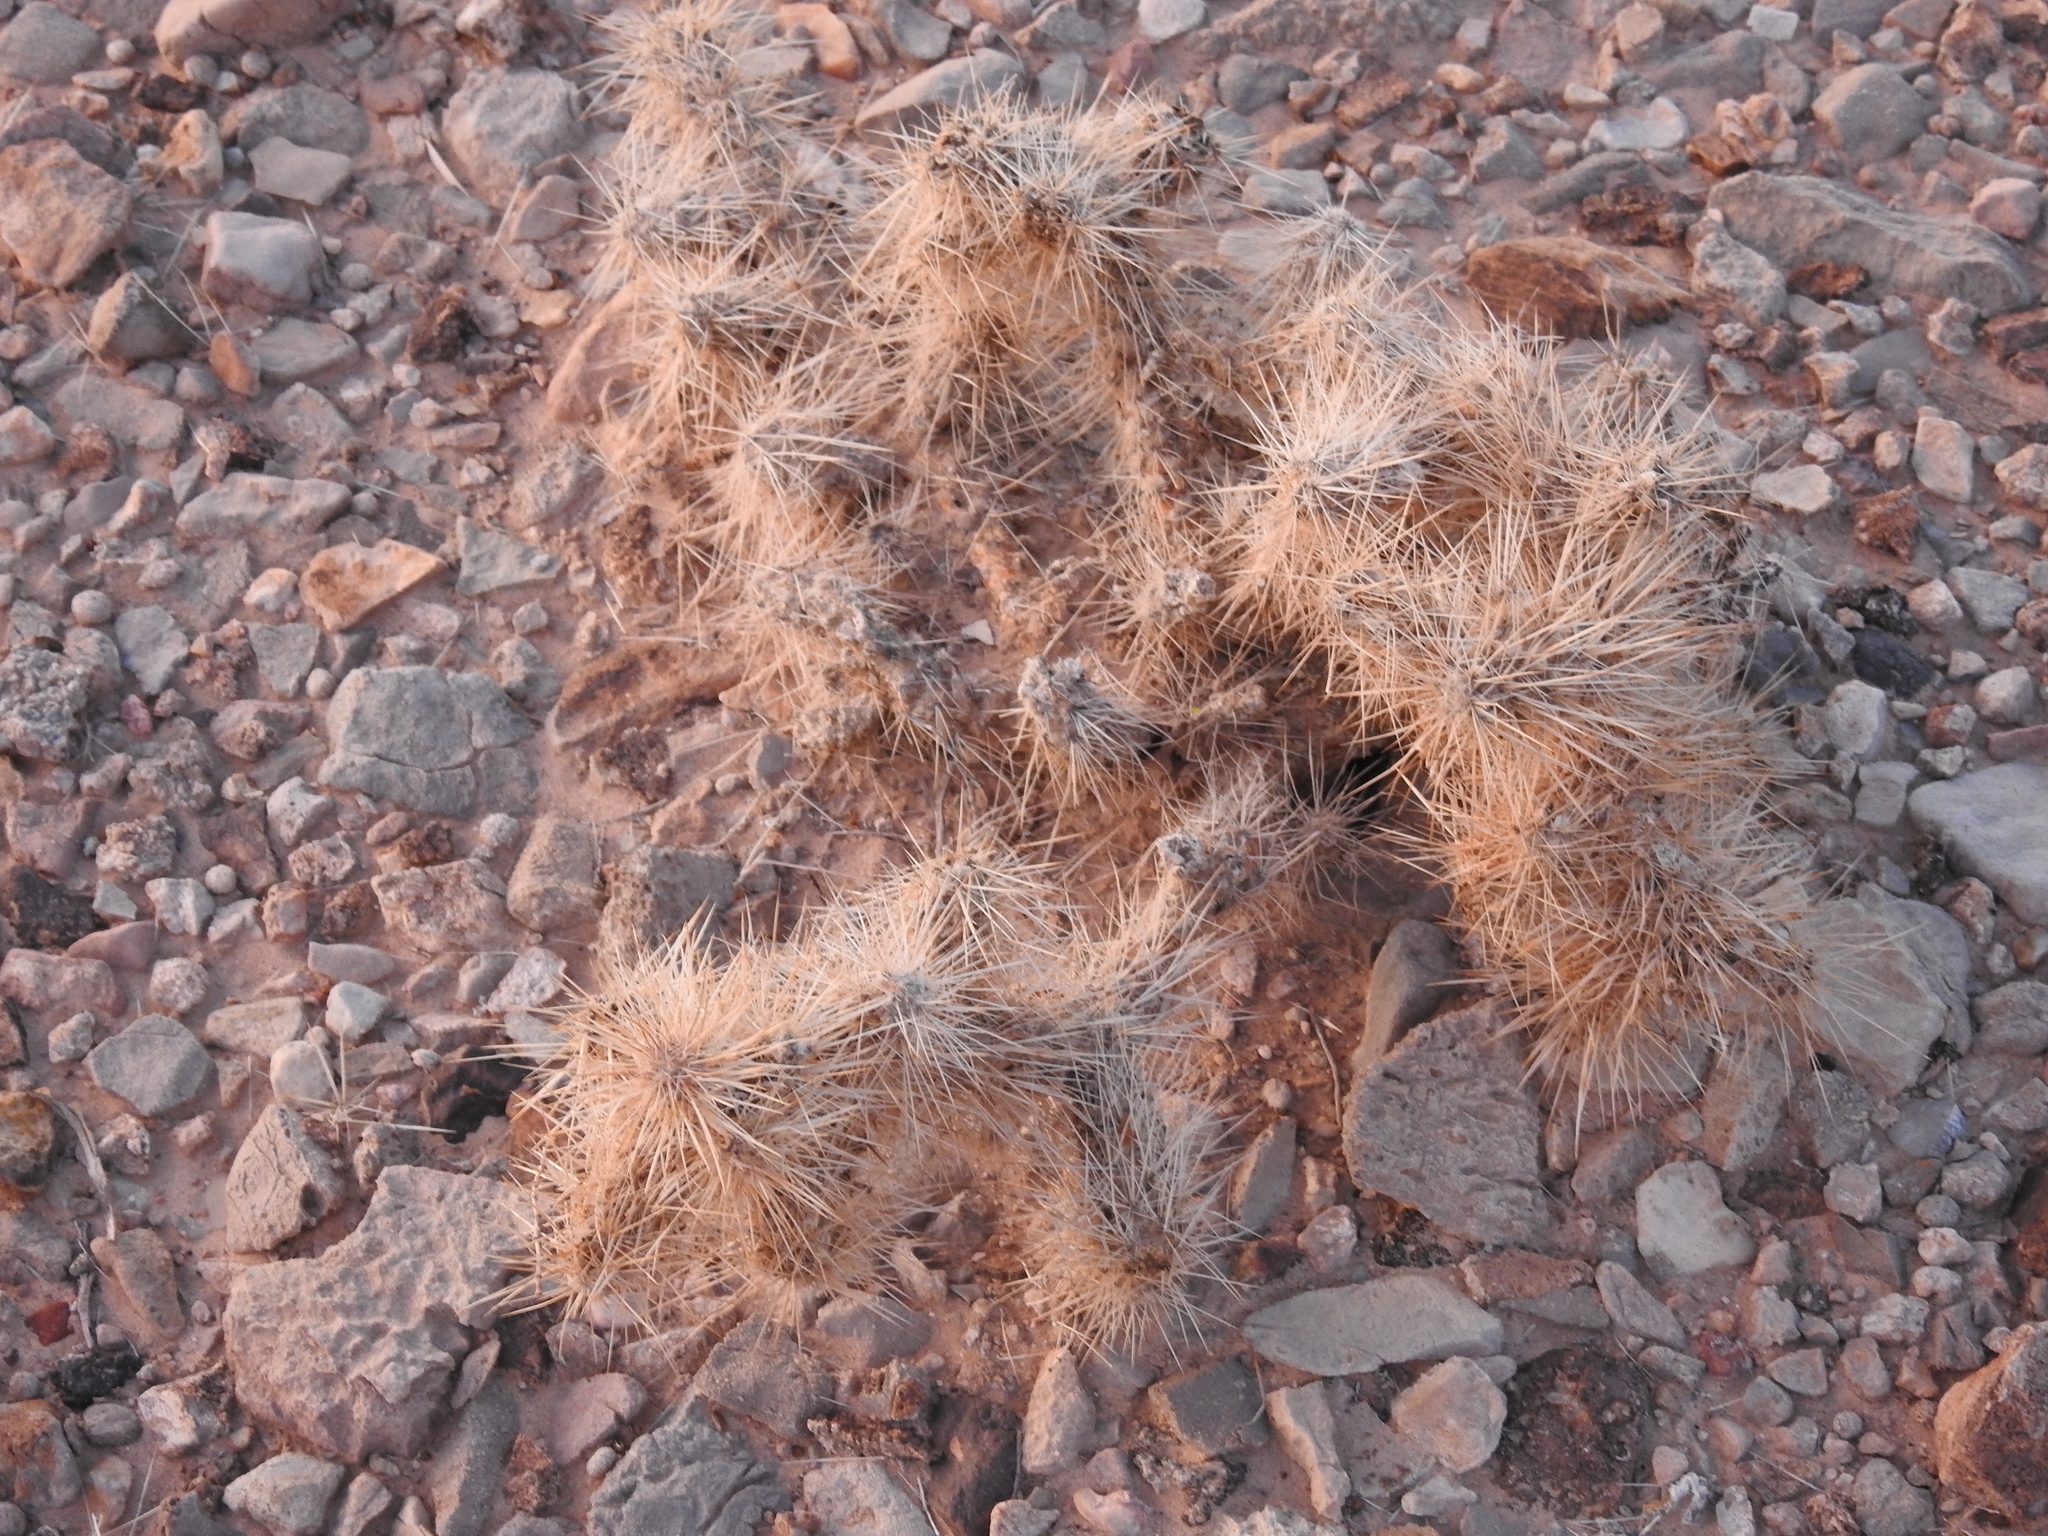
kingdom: Plantae
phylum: Tracheophyta
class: Magnoliopsida
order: Caryophyllales
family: Cactaceae
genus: Cylindropuntia
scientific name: Cylindropuntia echinocarpa
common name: Ground cholla
